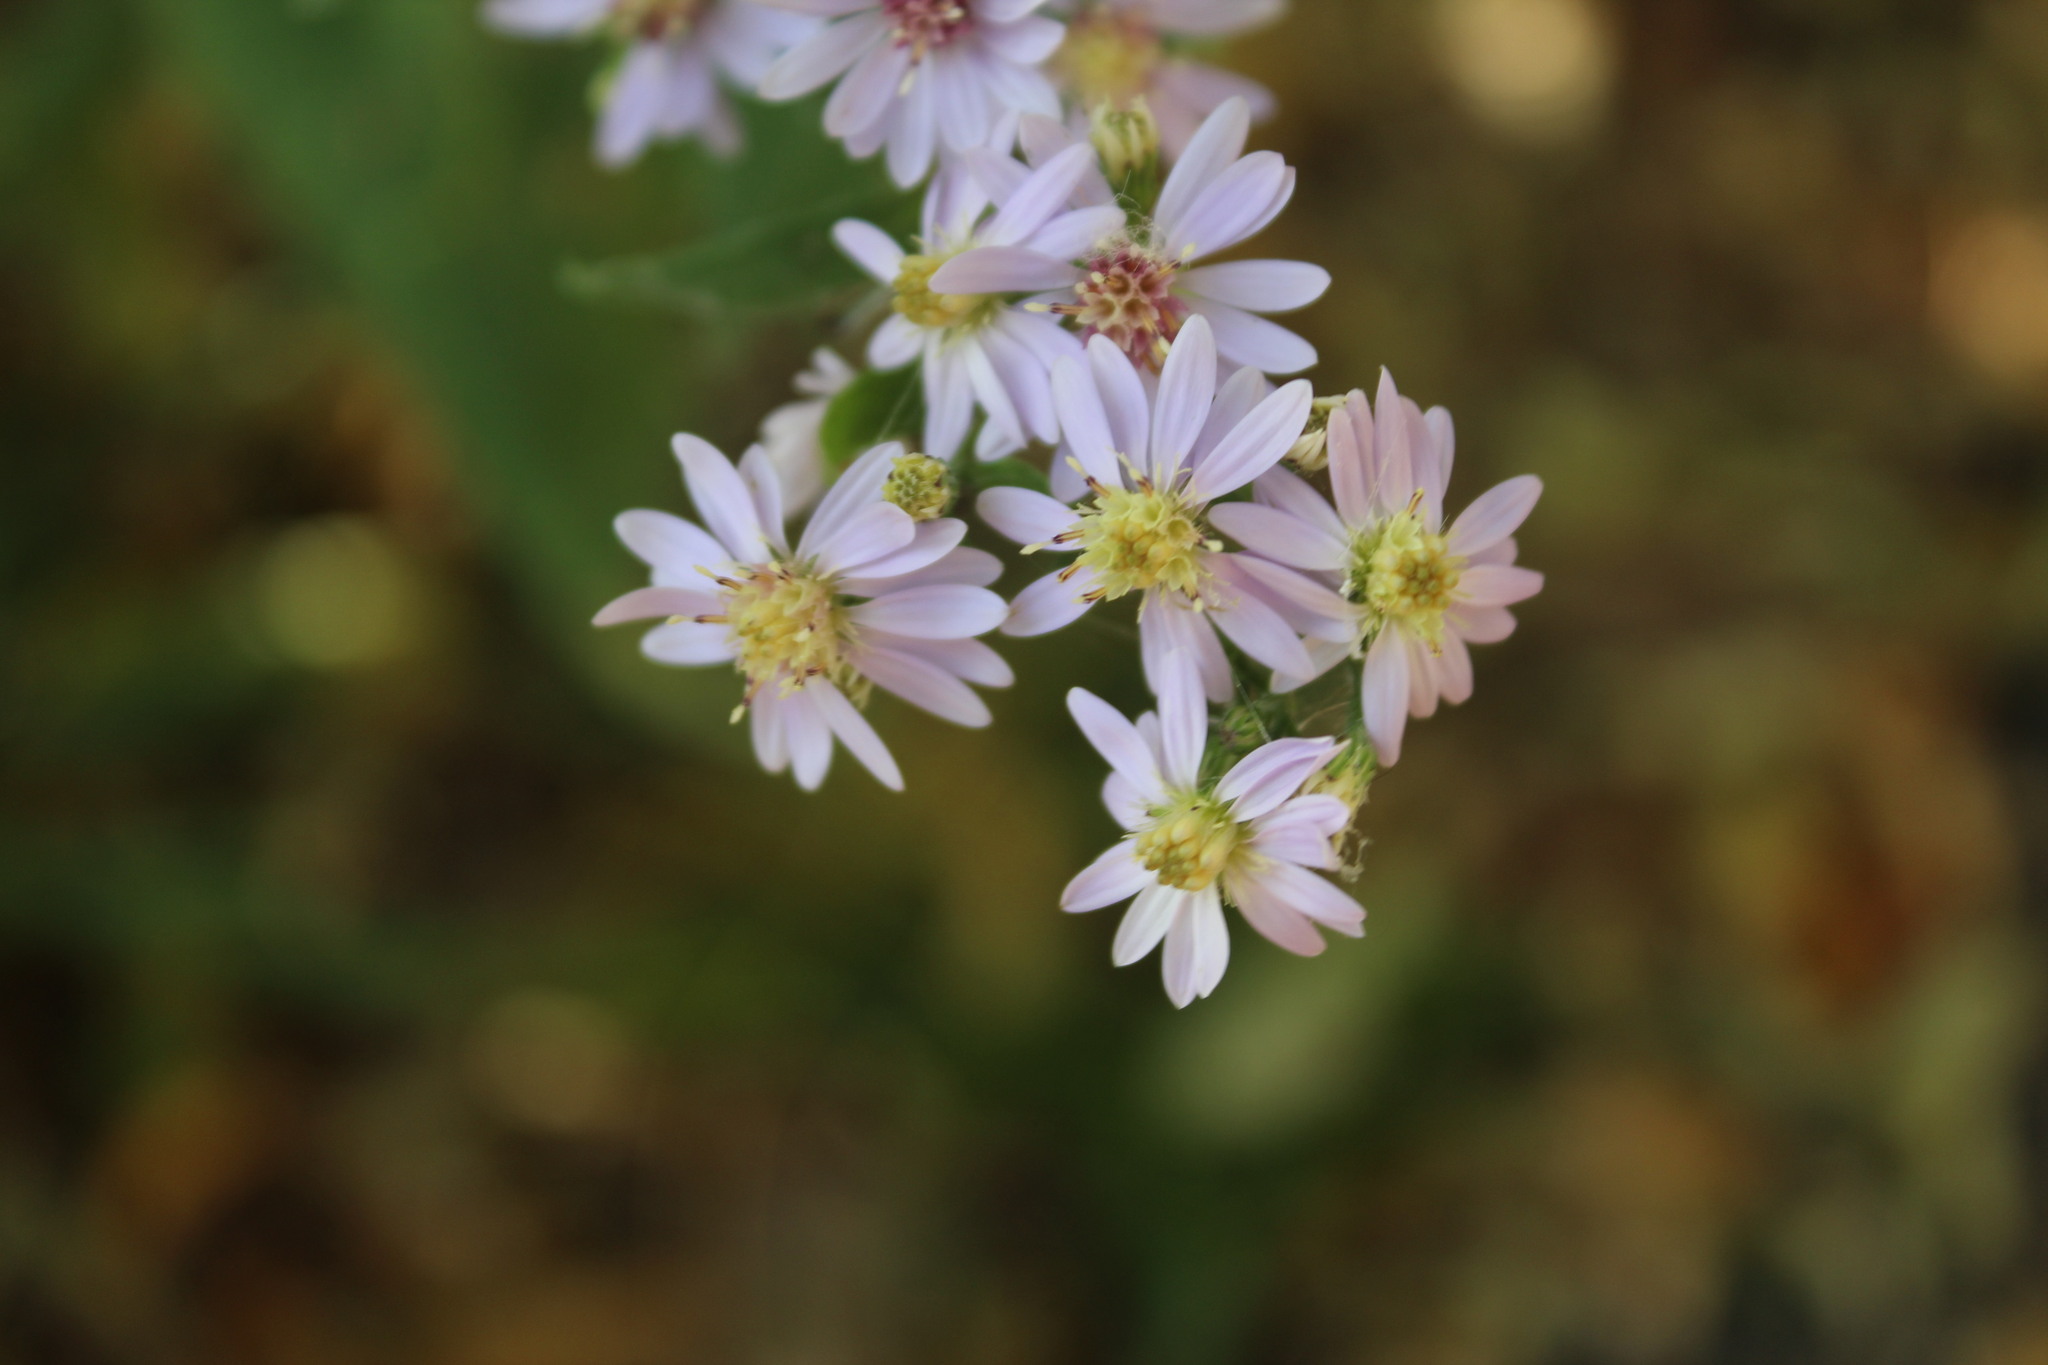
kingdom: Plantae
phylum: Tracheophyta
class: Magnoliopsida
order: Asterales
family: Asteraceae
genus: Symphyotrichum
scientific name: Symphyotrichum cordifolium
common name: Beeweed
